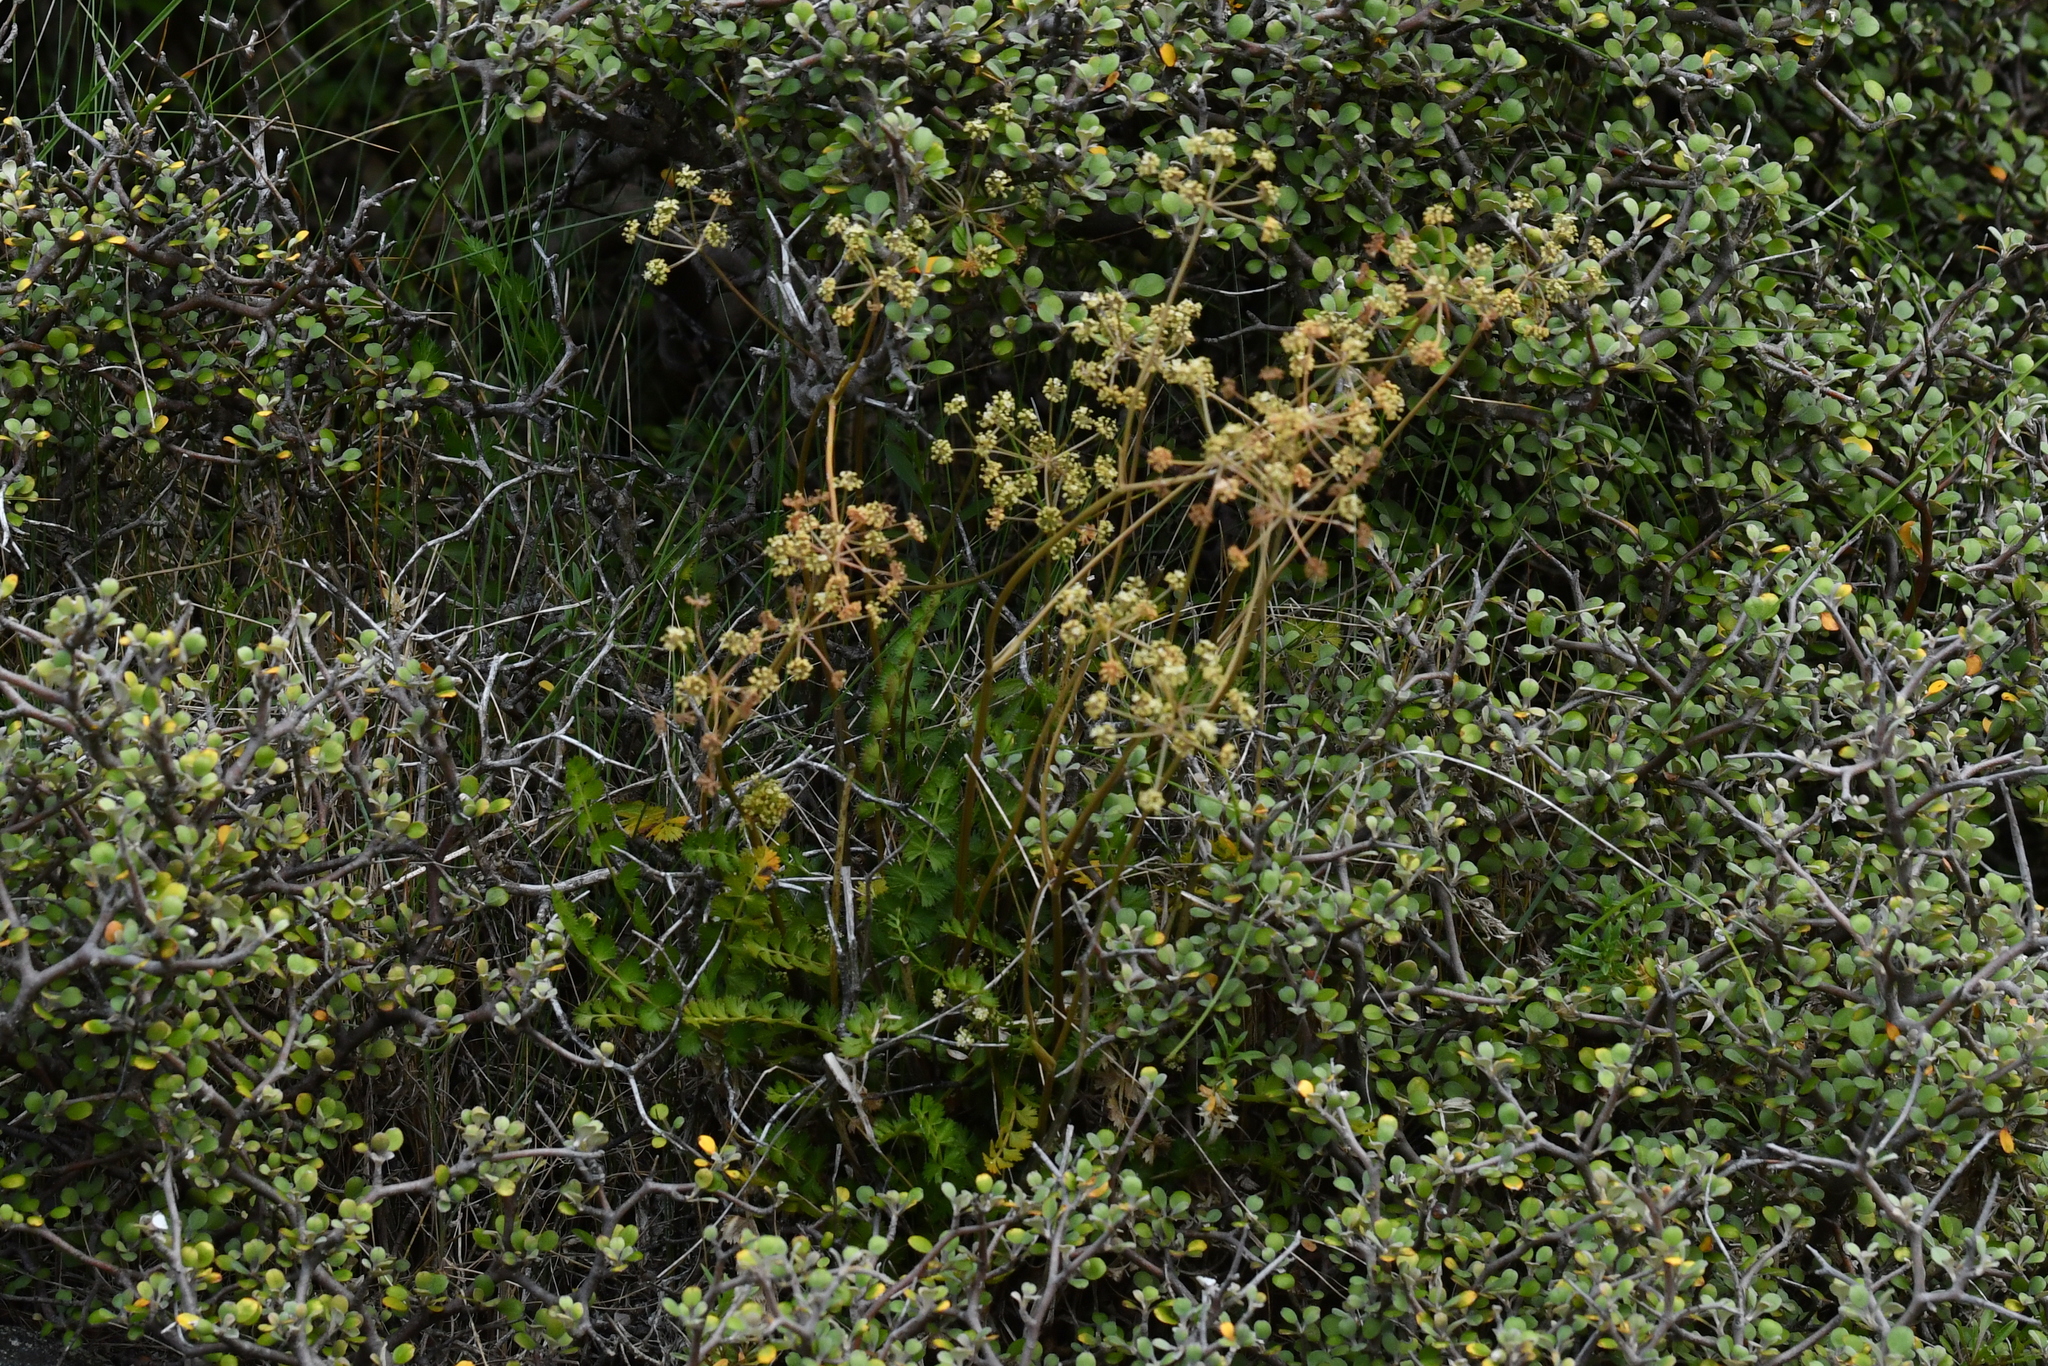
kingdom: Plantae
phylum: Tracheophyta
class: Magnoliopsida
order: Apiales
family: Apiaceae
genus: Anisotome
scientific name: Anisotome aromatica
